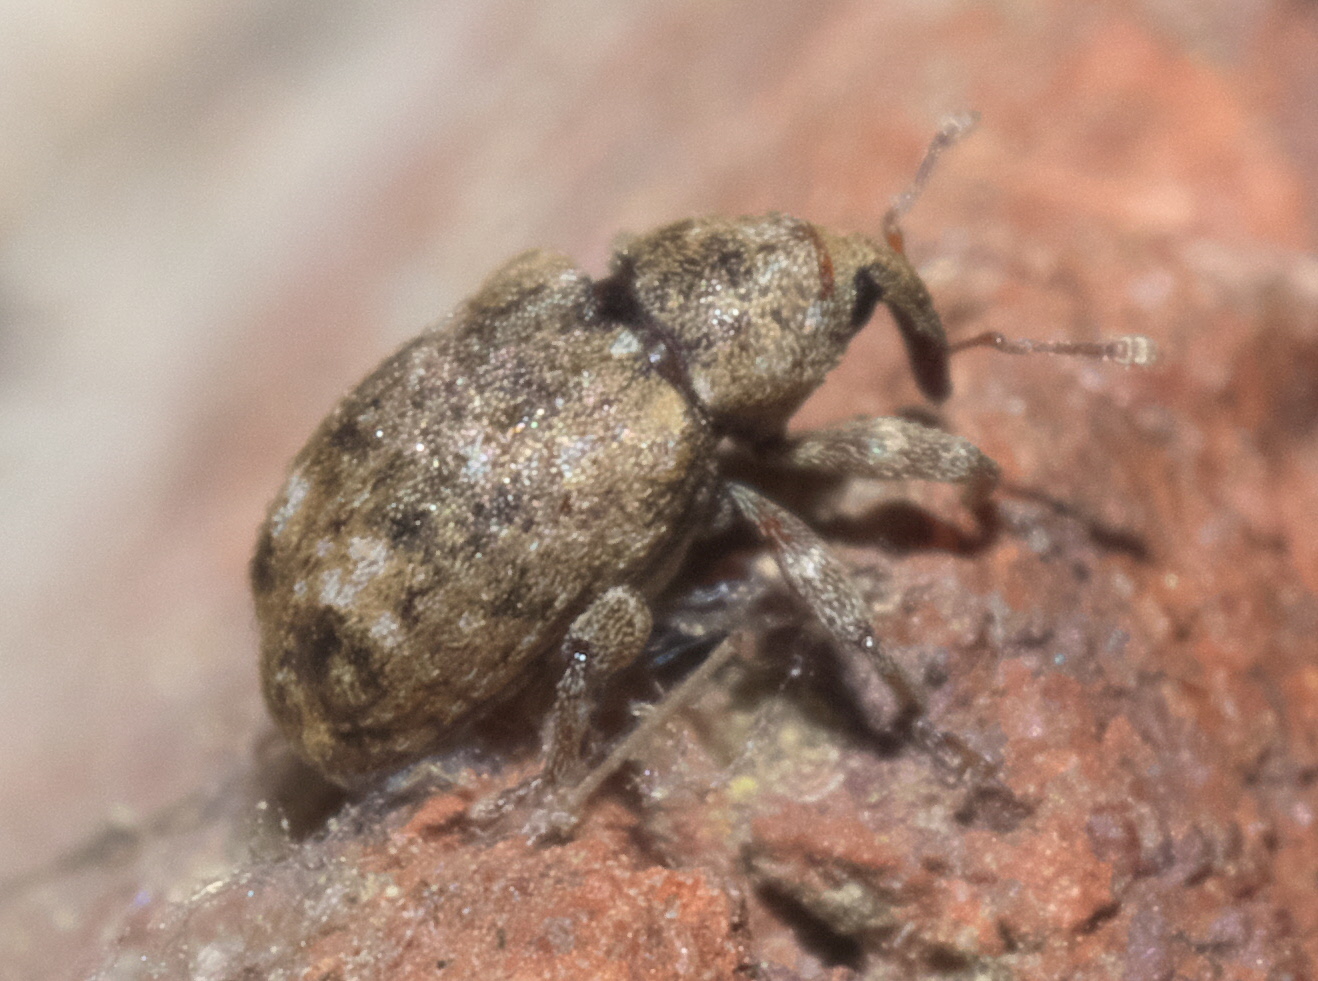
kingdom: Animalia
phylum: Arthropoda
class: Insecta
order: Coleoptera
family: Curculionidae
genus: Conotrachelus
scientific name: Conotrachelus recessus
